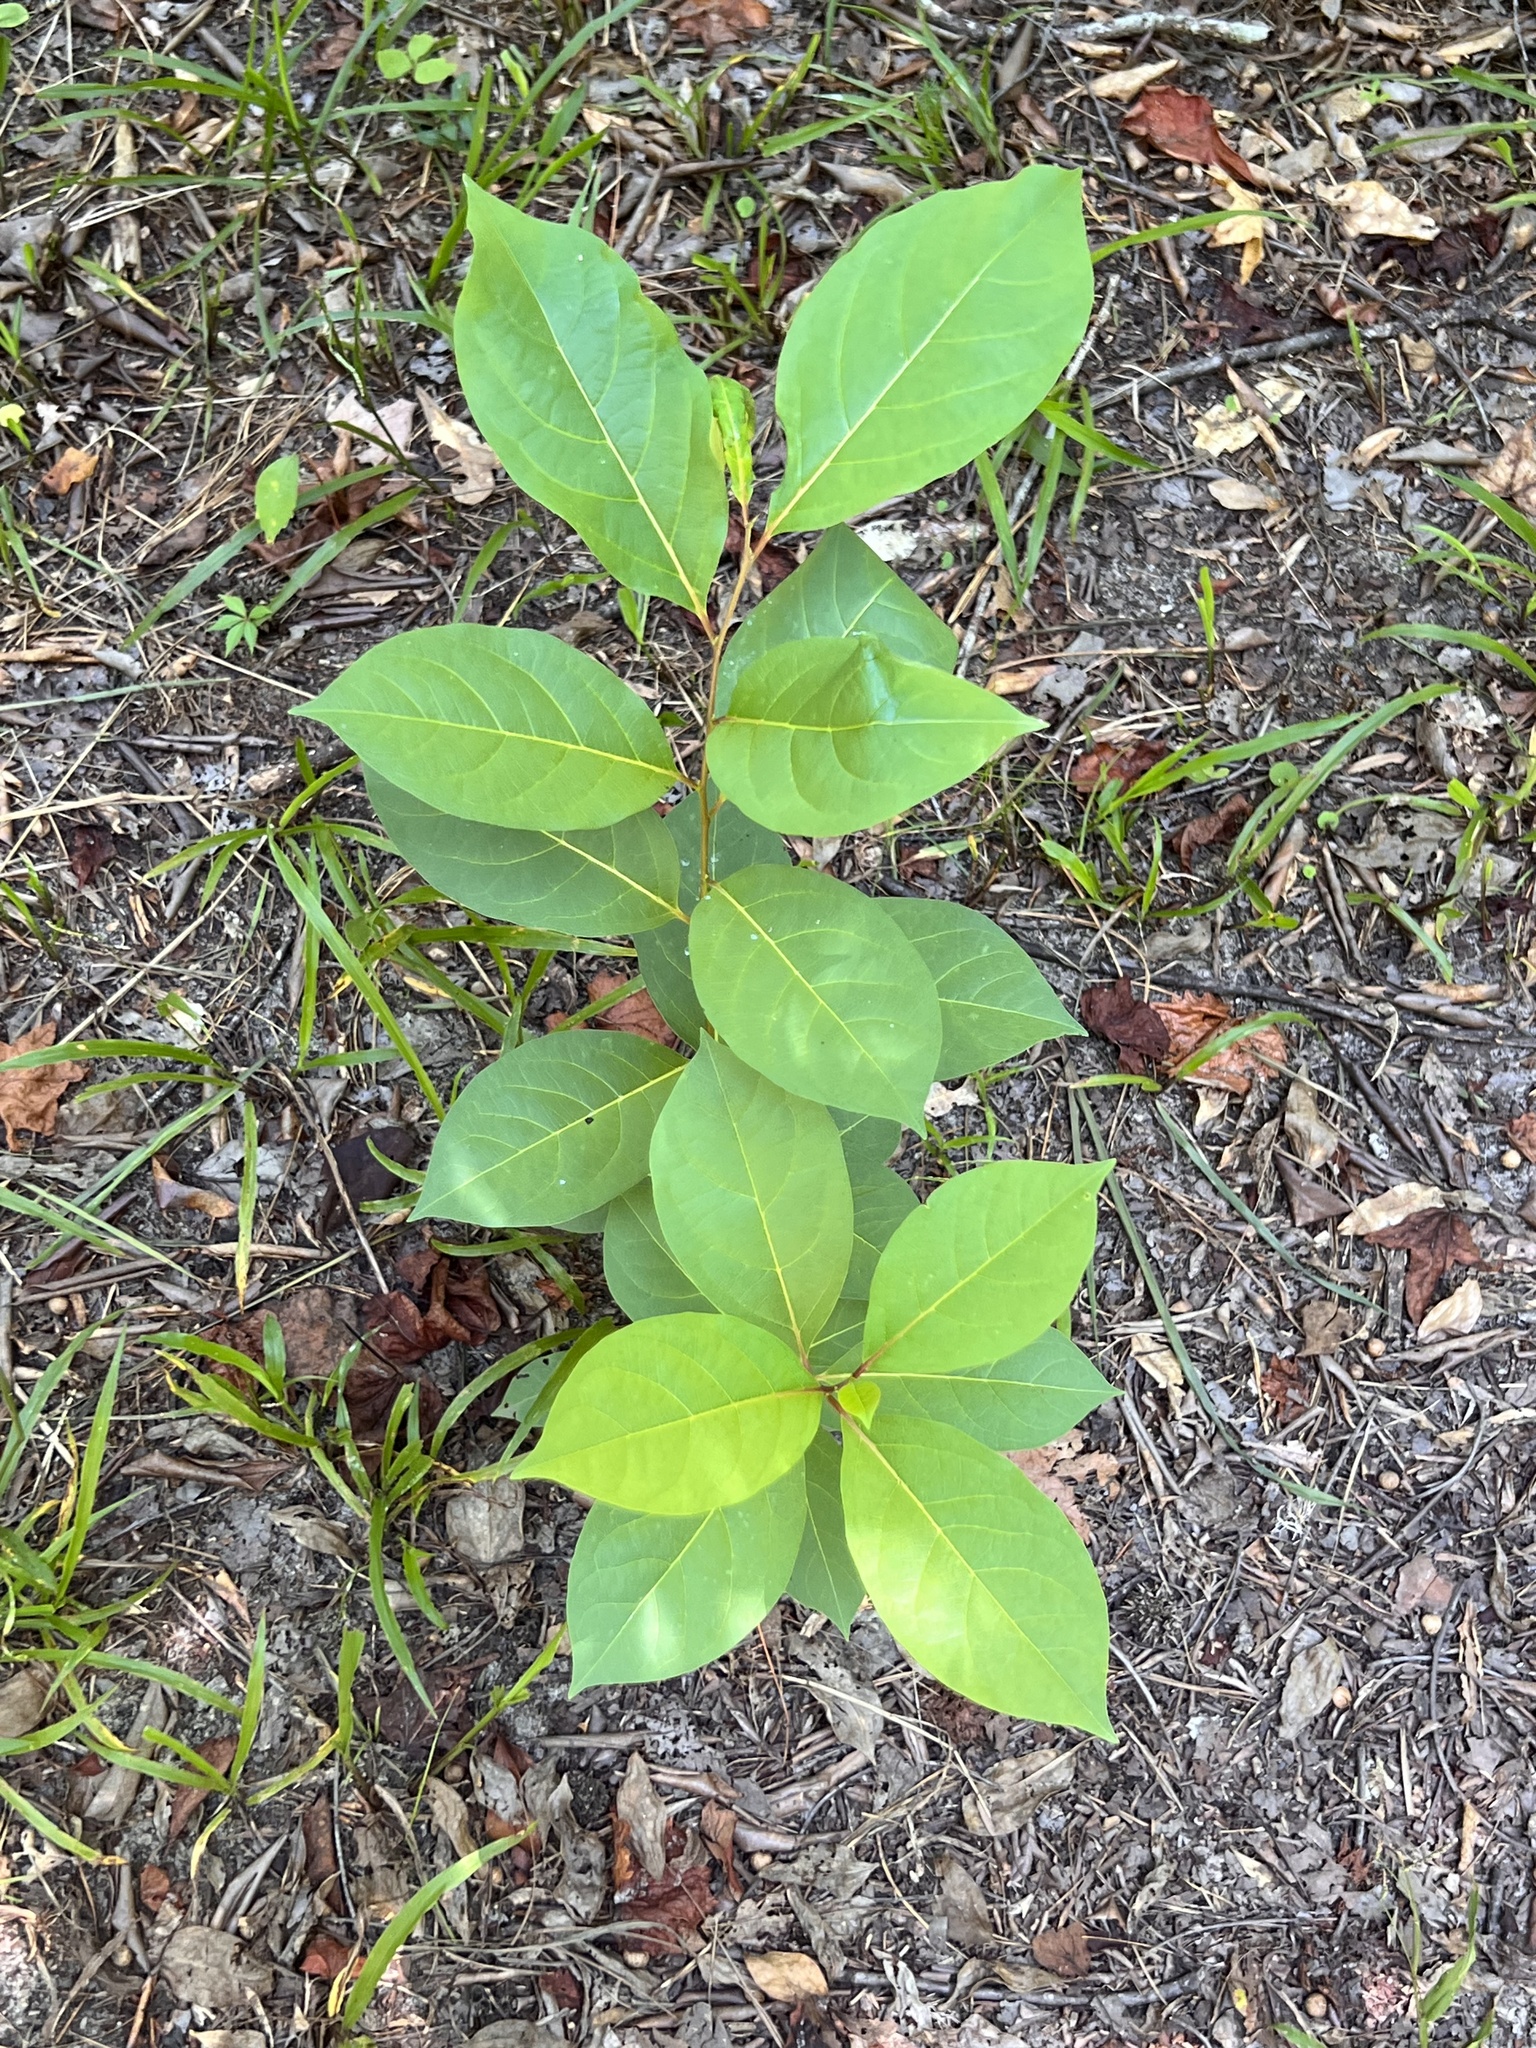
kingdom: Plantae
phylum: Tracheophyta
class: Magnoliopsida
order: Ericales
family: Ebenaceae
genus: Diospyros
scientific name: Diospyros virginiana
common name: Persimmon
